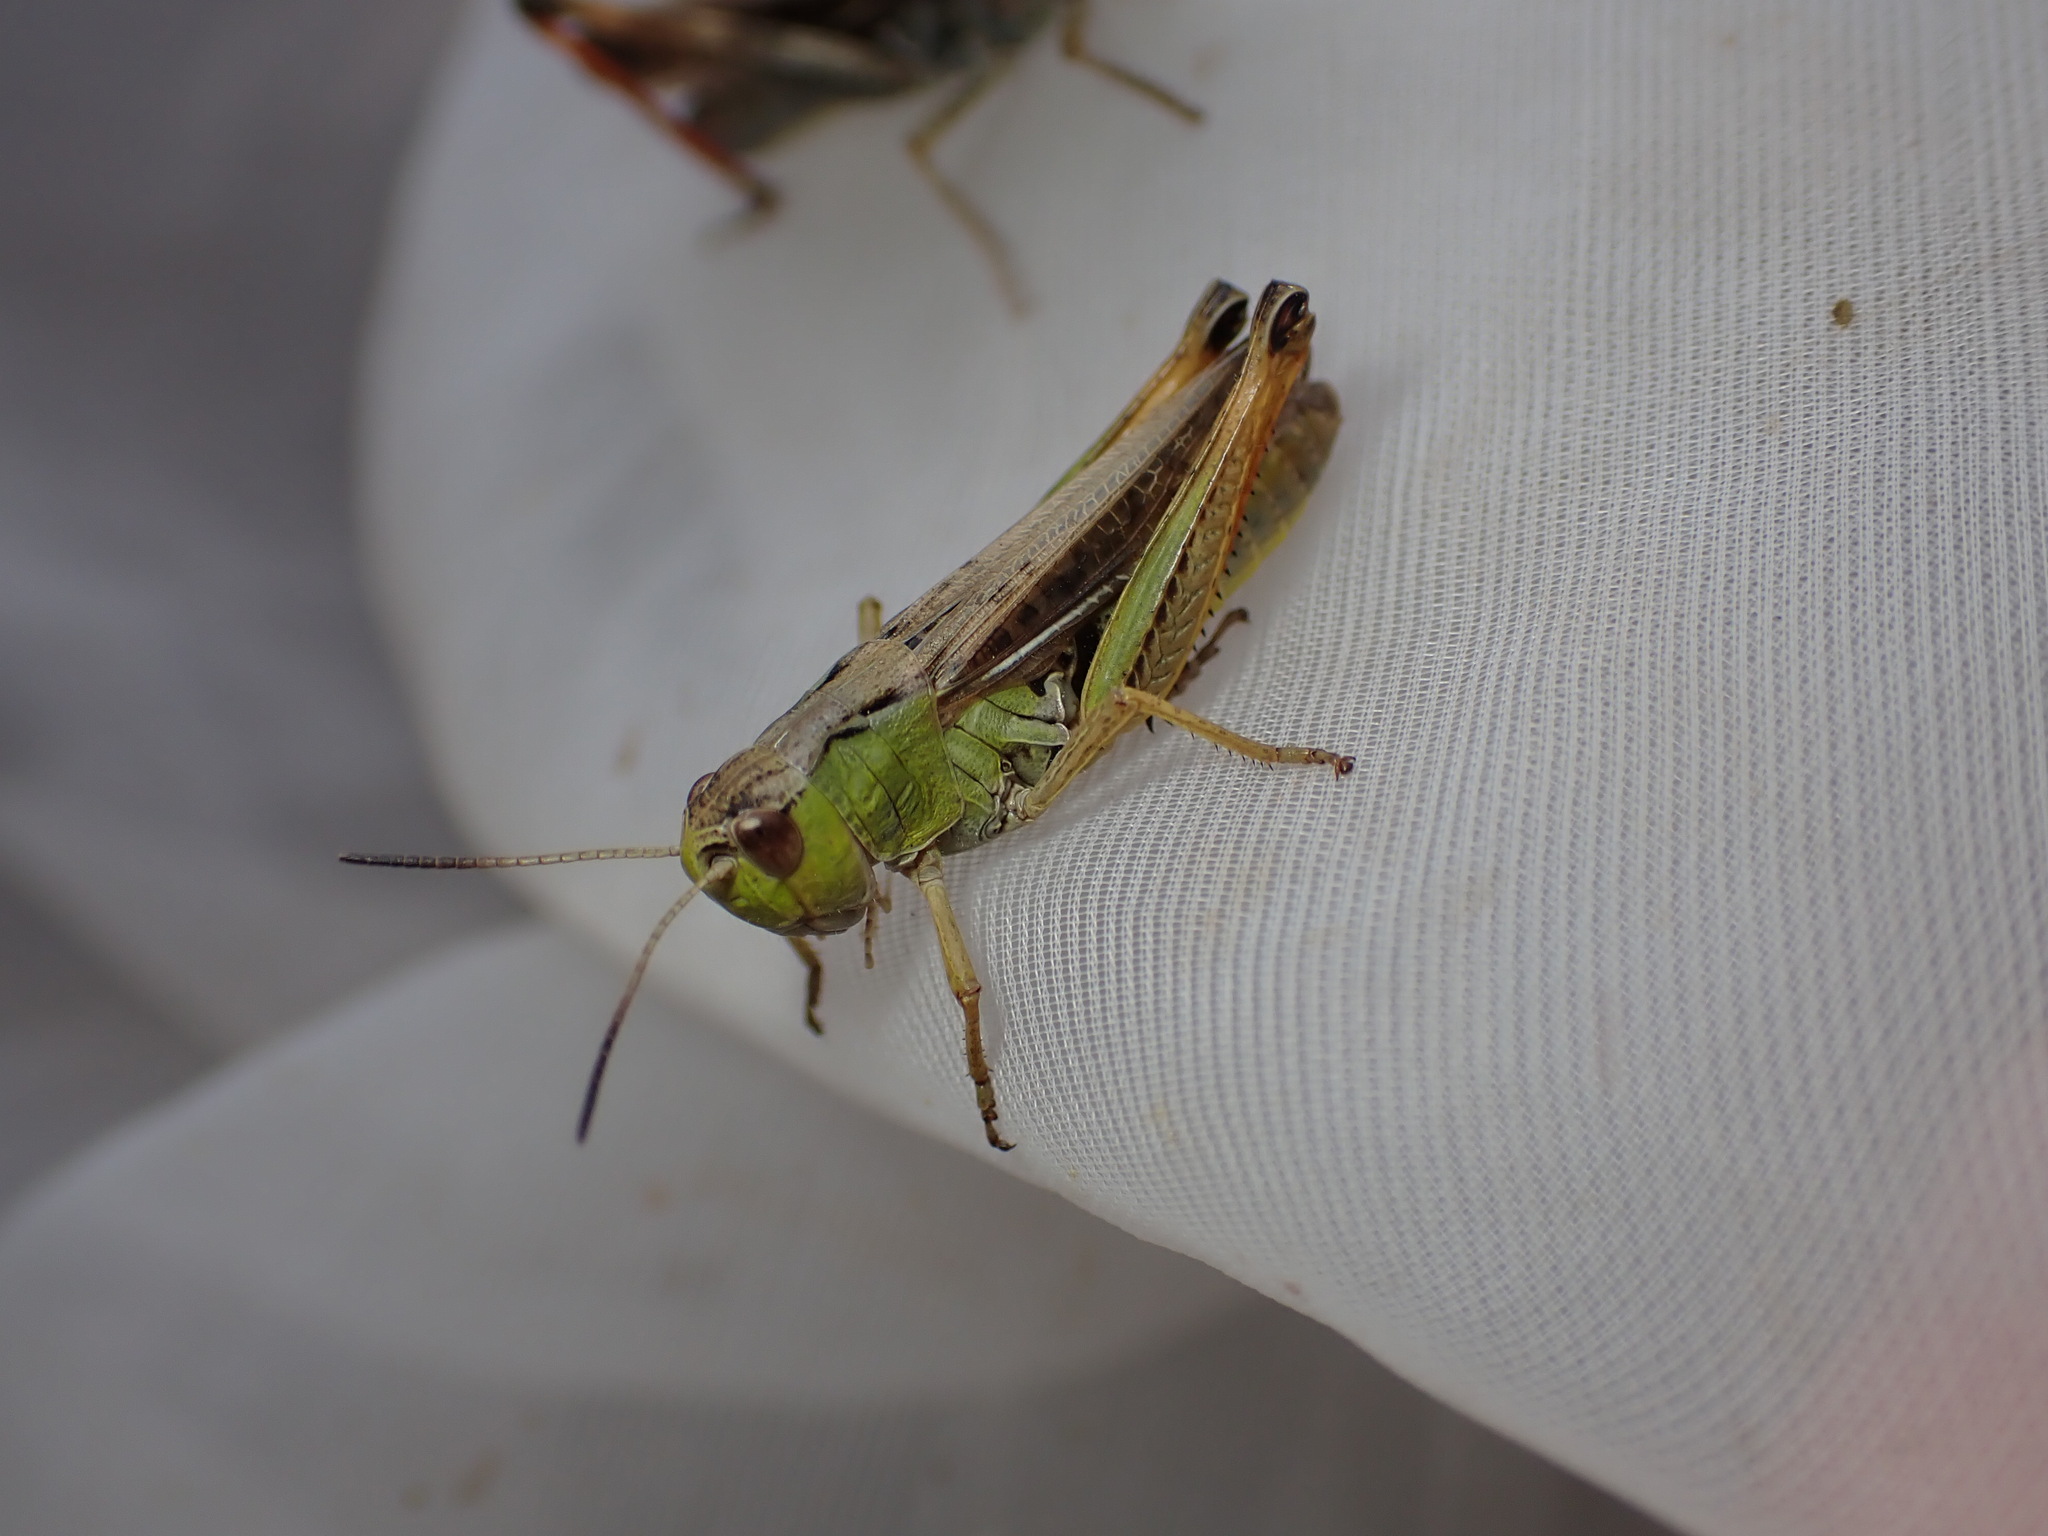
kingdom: Animalia
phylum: Arthropoda
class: Insecta
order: Orthoptera
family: Acrididae
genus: Stauroderus
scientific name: Stauroderus scalaris
